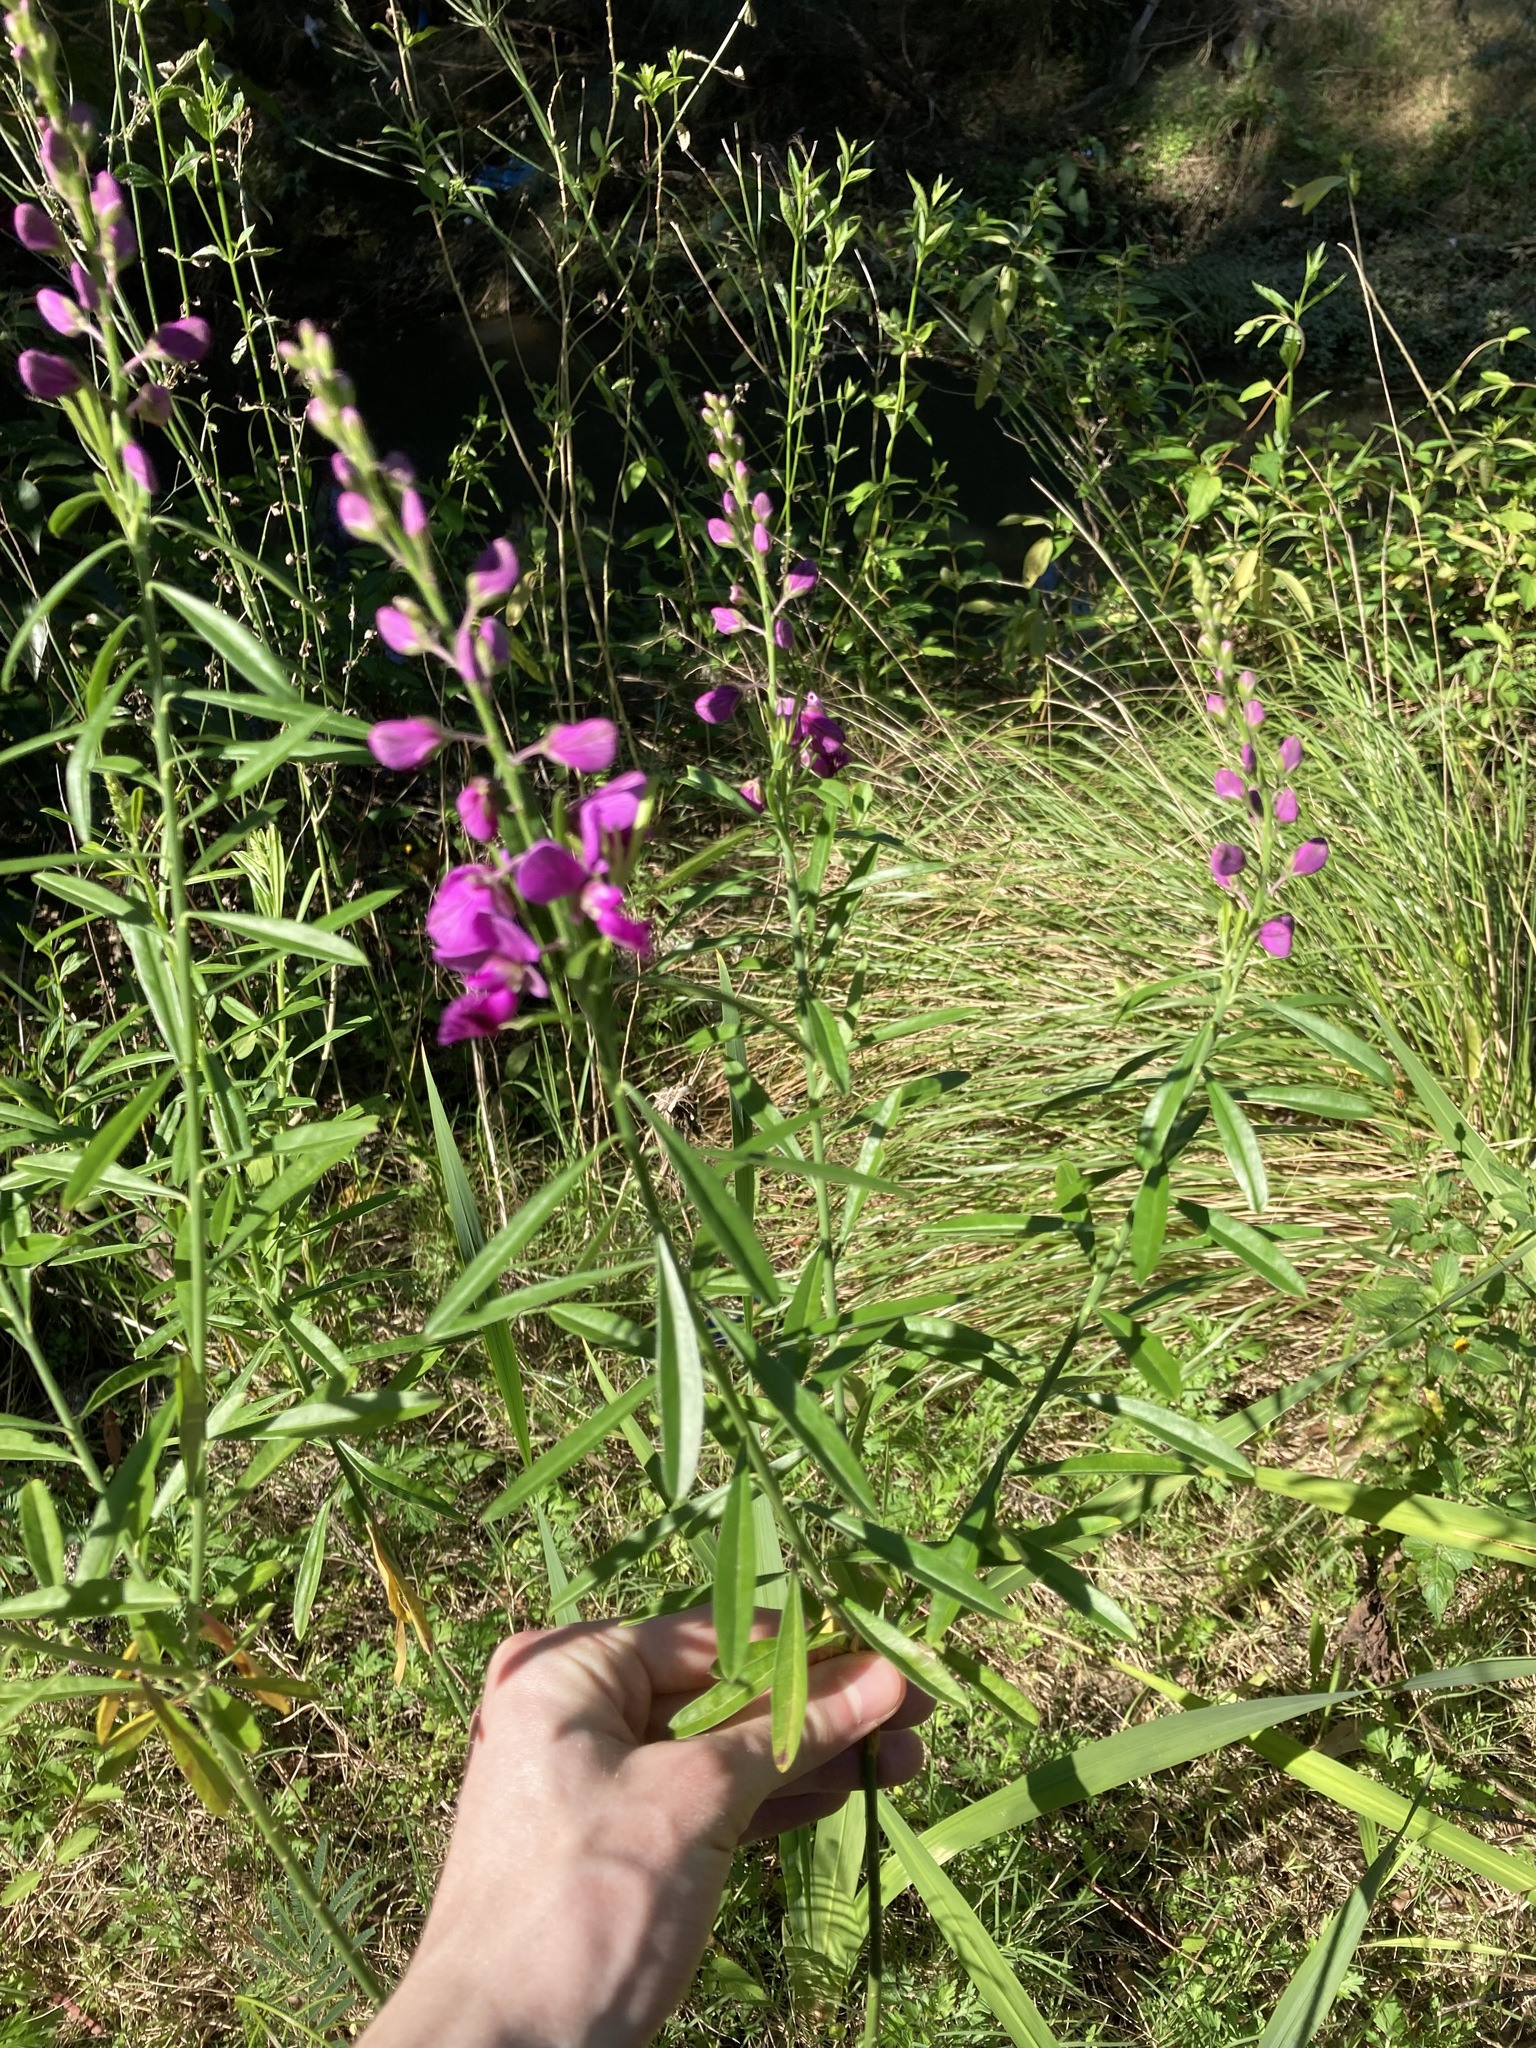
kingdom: Plantae
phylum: Tracheophyta
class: Magnoliopsida
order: Fabales
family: Polygalaceae
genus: Polygala
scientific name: Polygala virgata
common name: Milkwort
